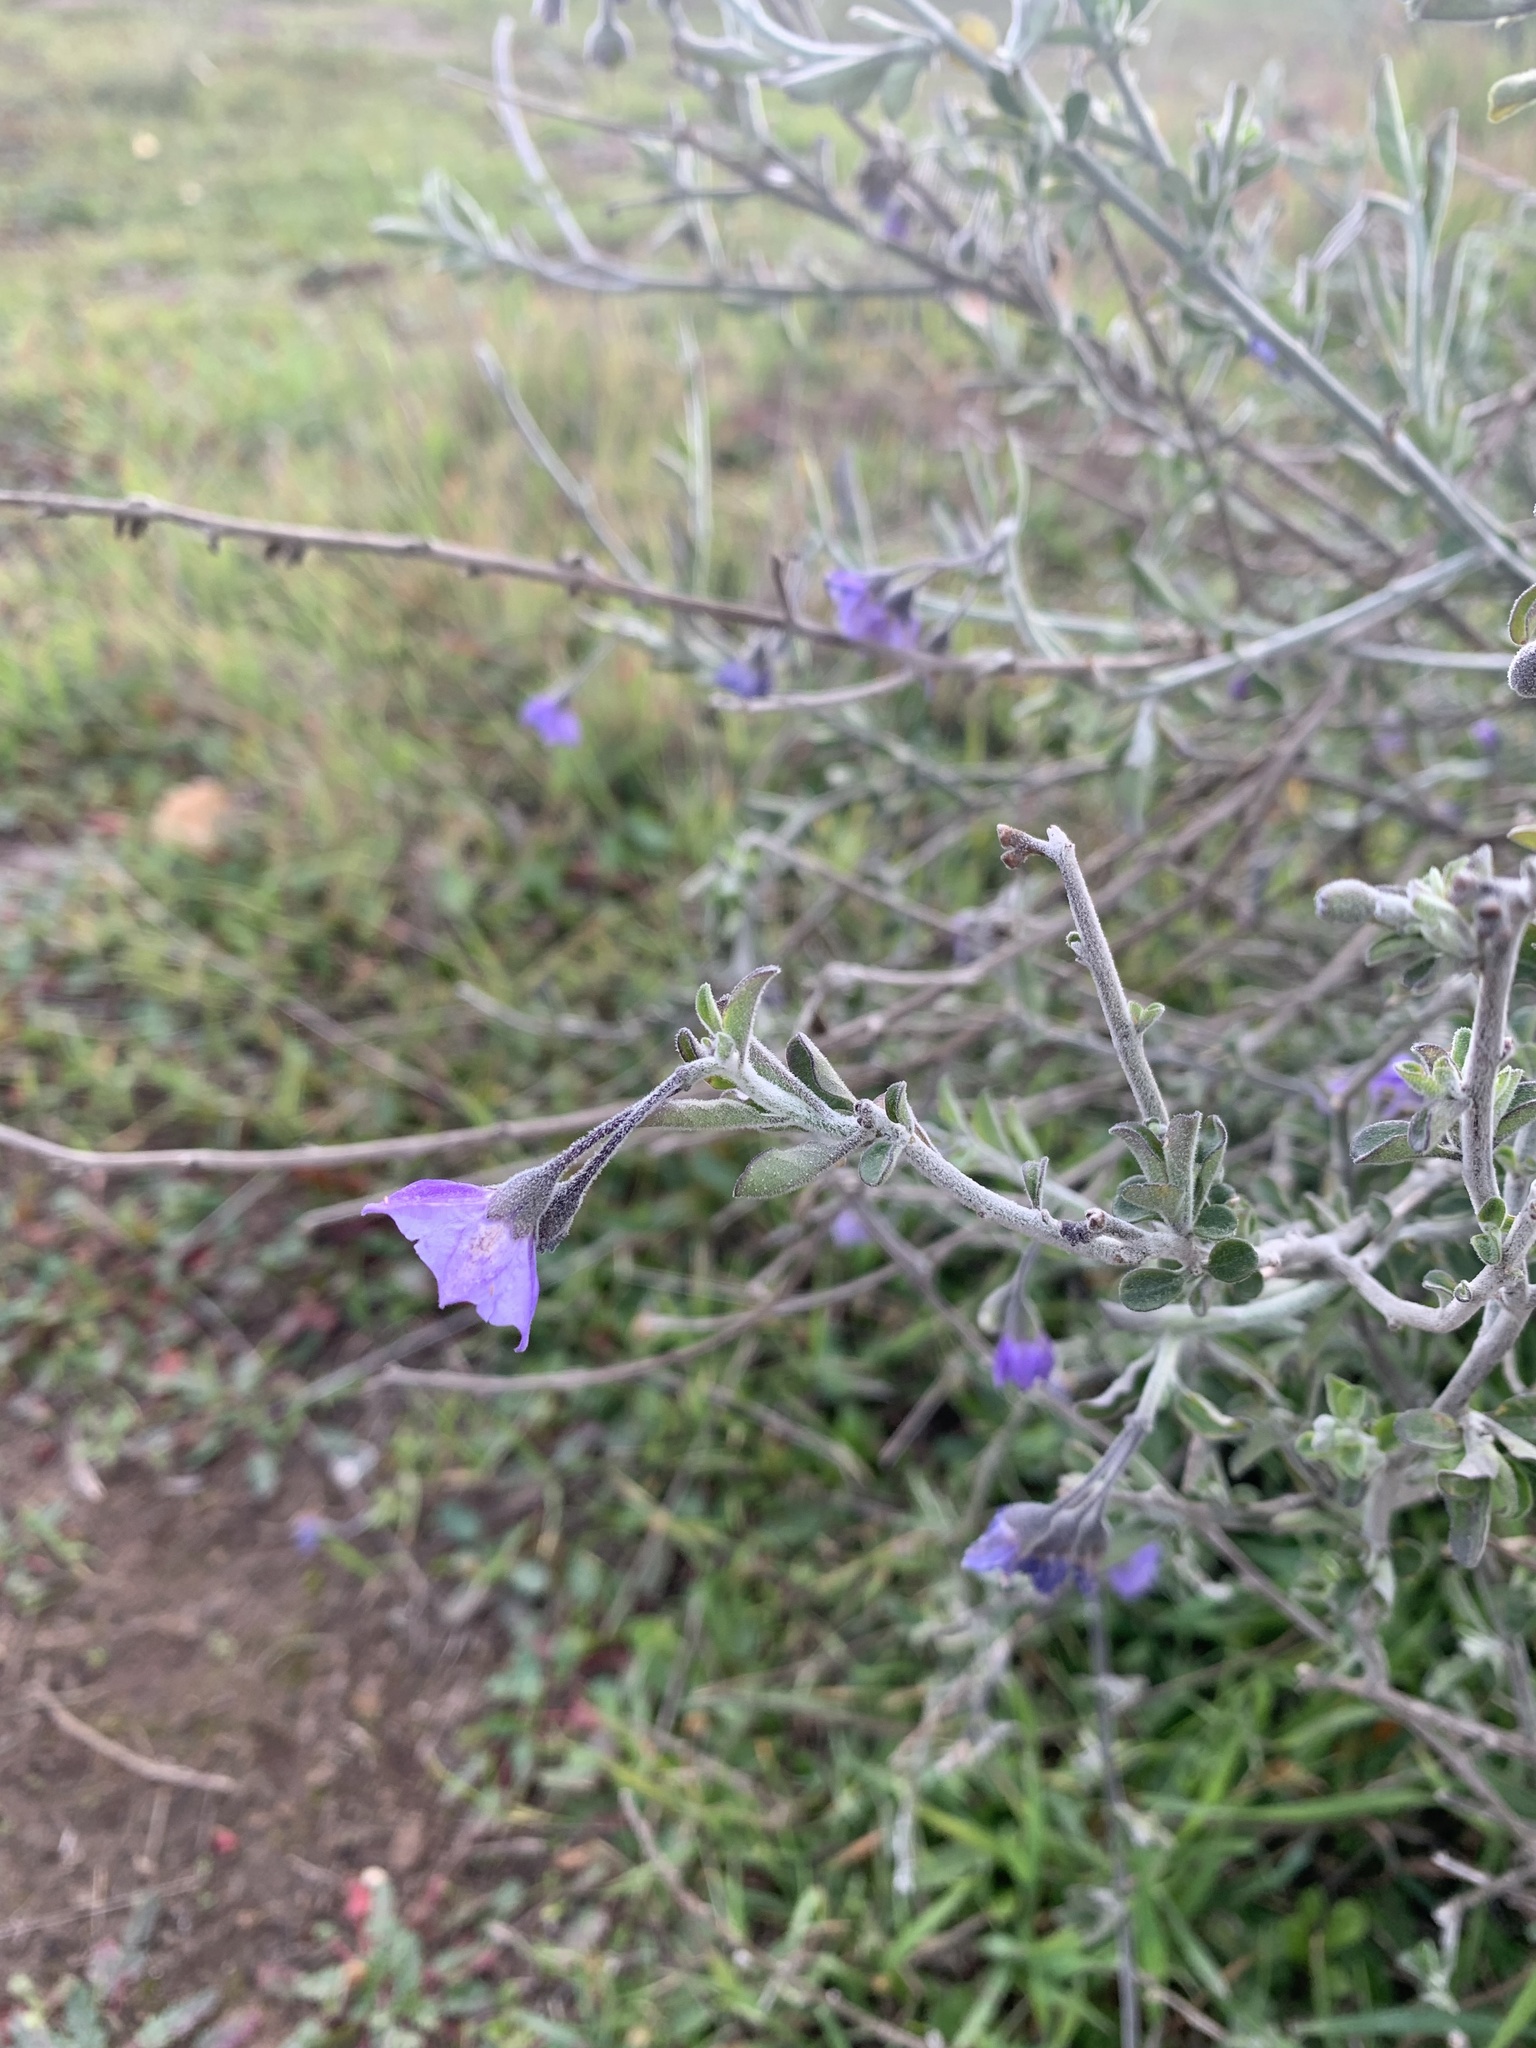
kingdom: Plantae
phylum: Tracheophyta
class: Magnoliopsida
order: Solanales
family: Solanaceae
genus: Solanum
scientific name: Solanum umbelliferum
